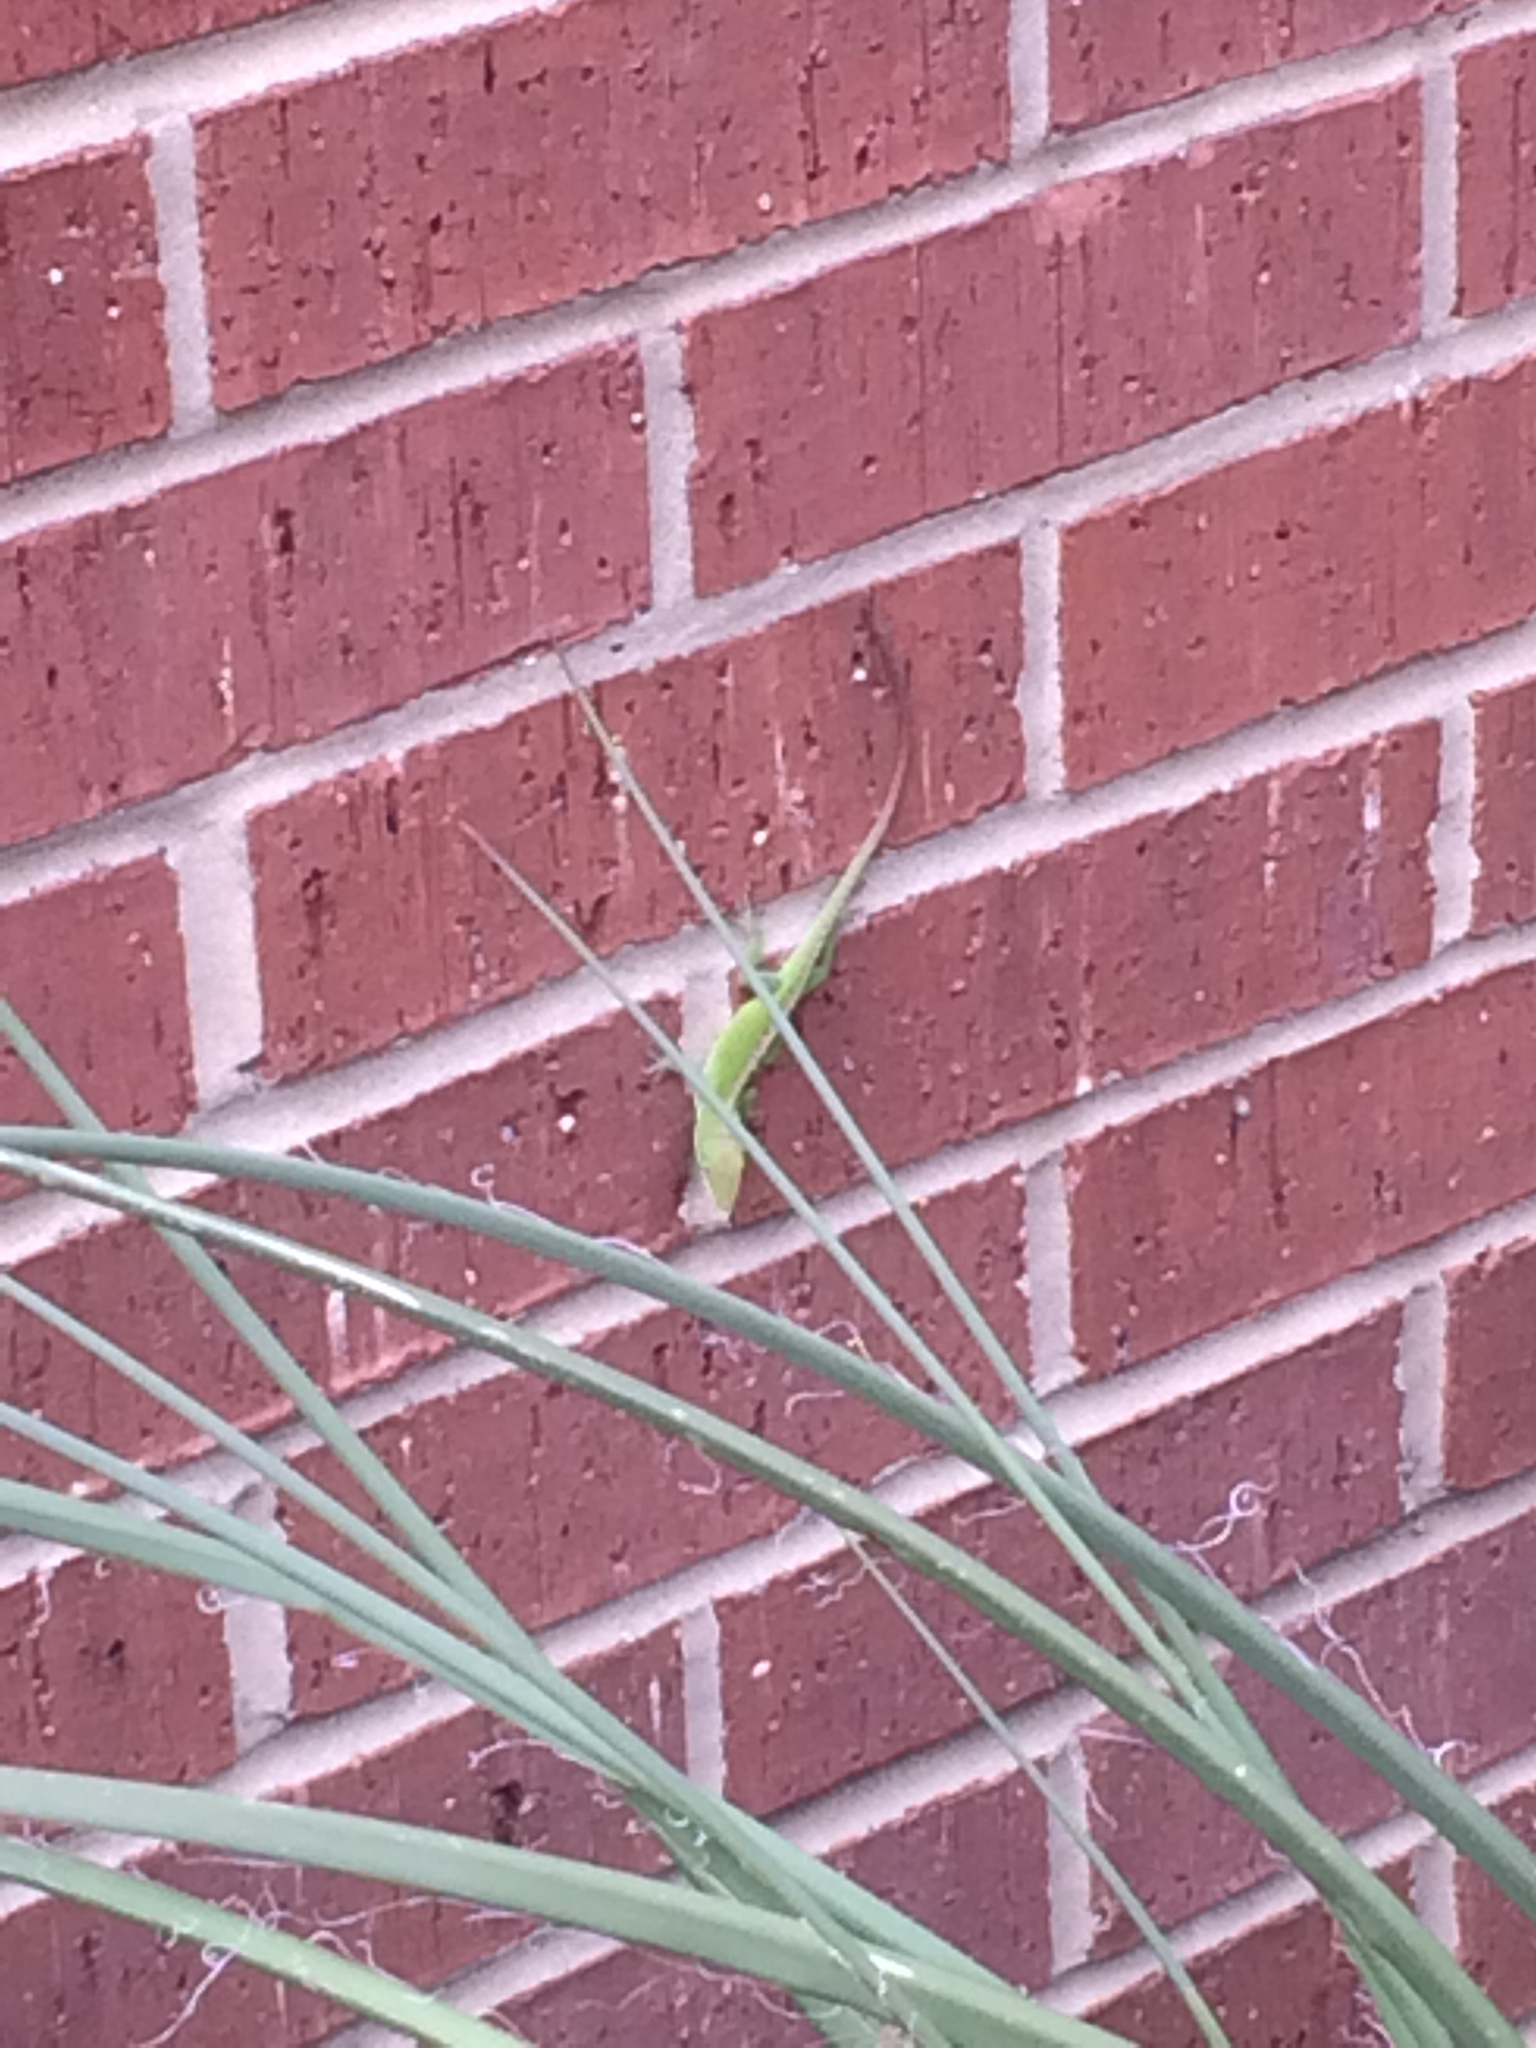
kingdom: Animalia
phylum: Chordata
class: Squamata
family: Dactyloidae
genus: Anolis
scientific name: Anolis carolinensis
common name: Green anole
